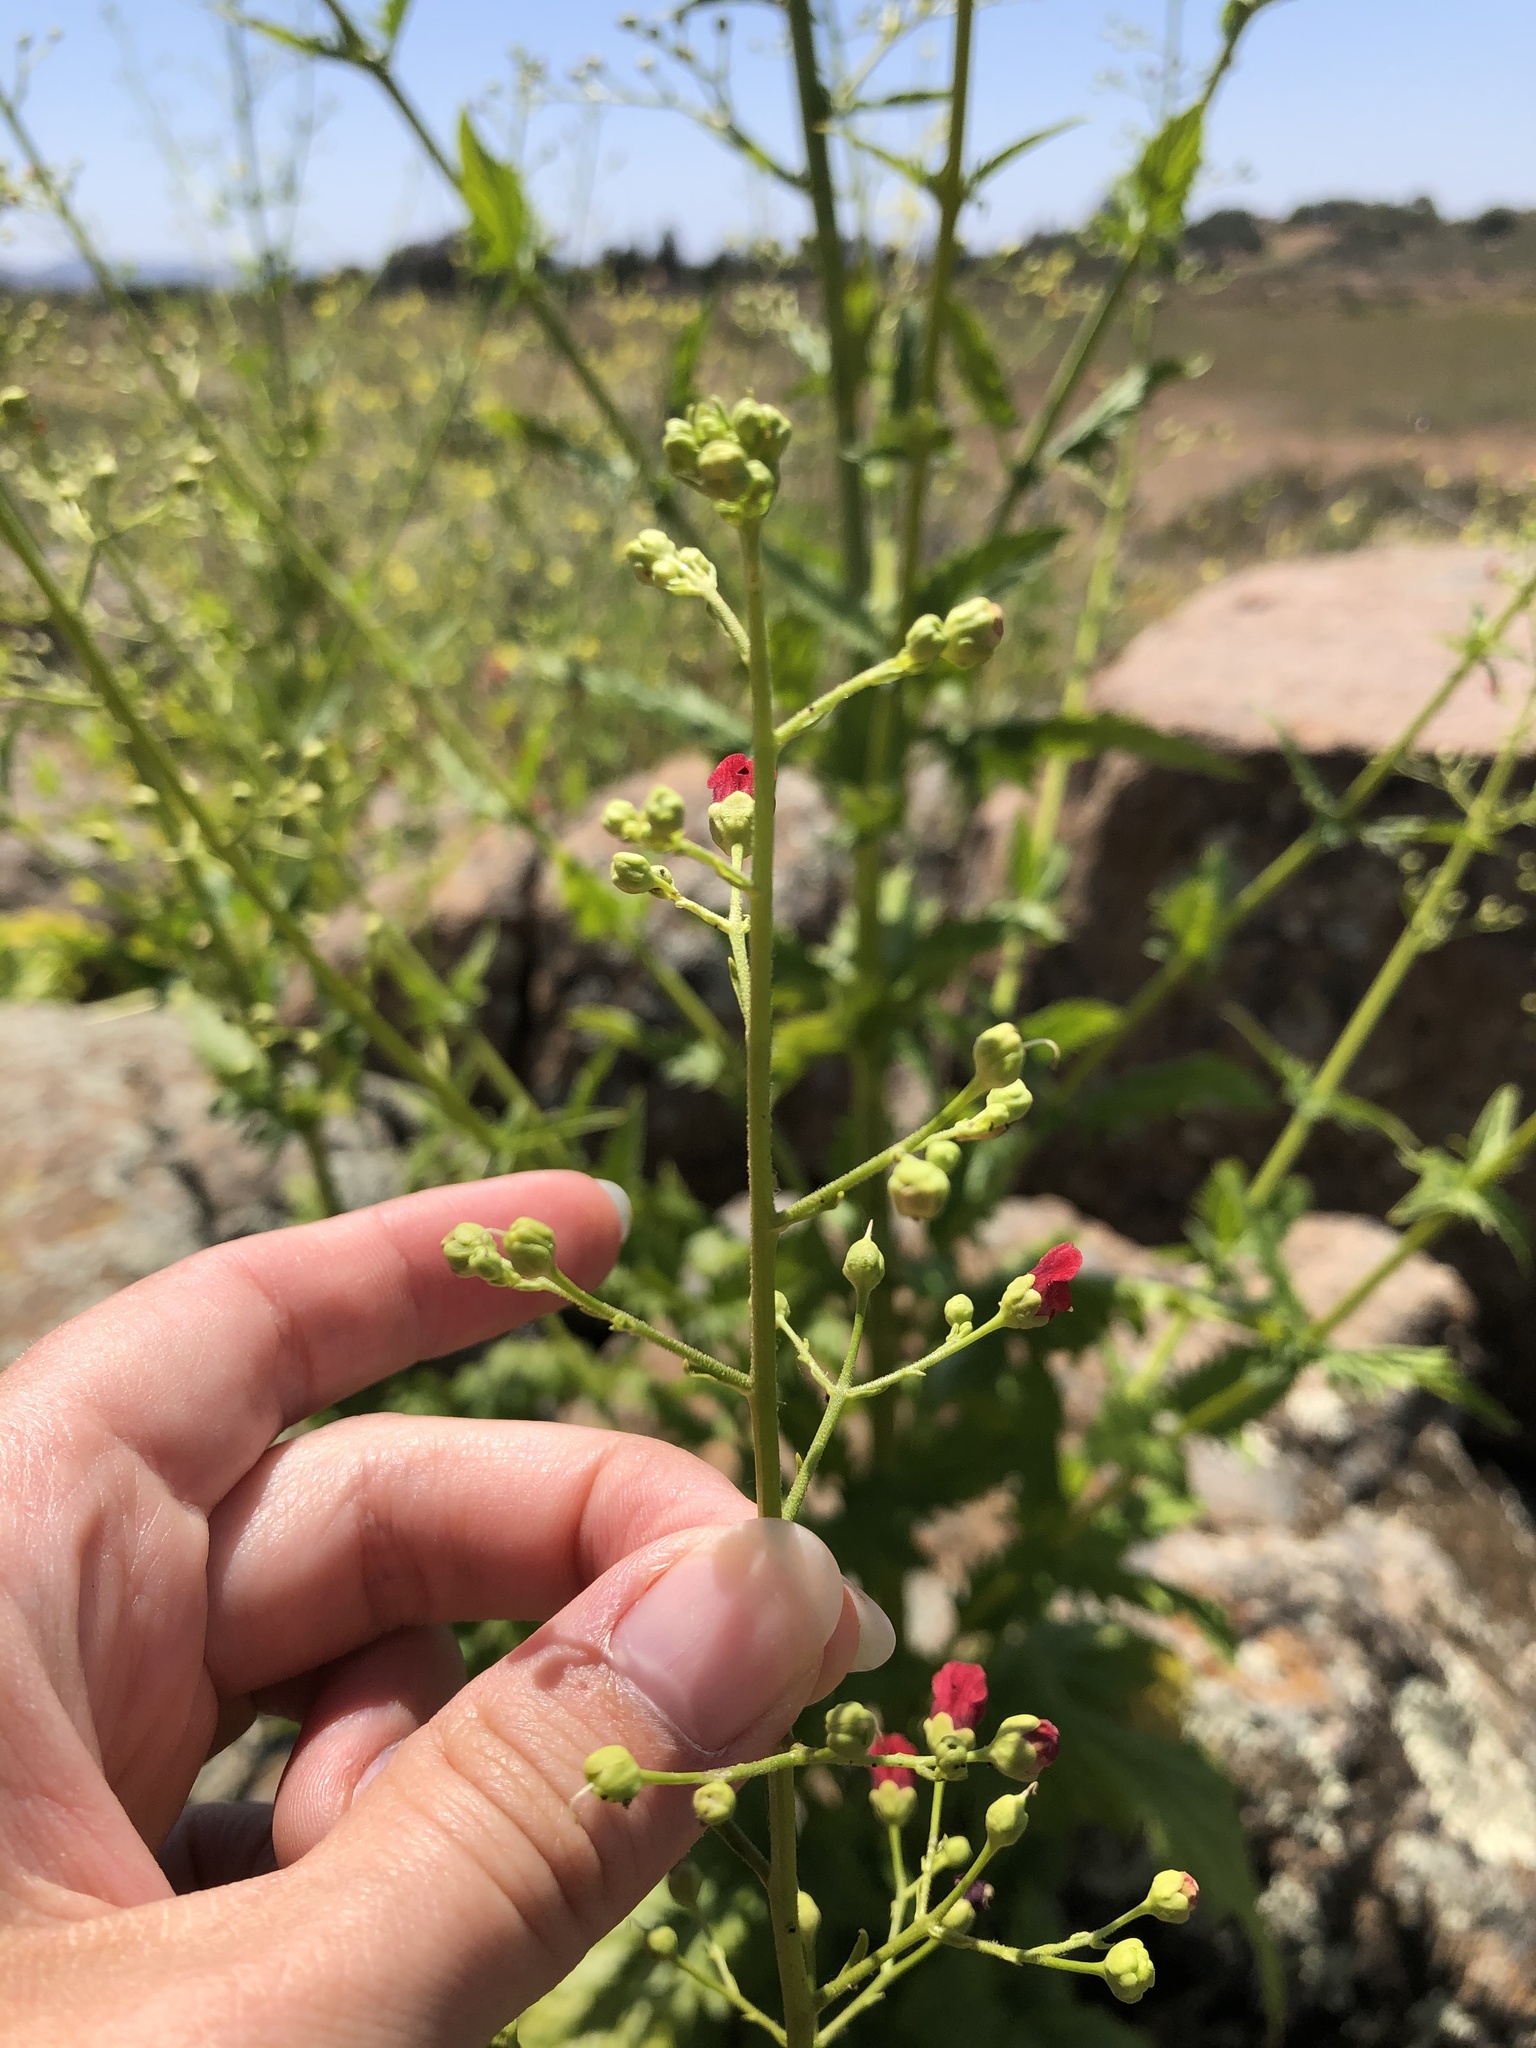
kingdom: Plantae
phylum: Tracheophyta
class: Magnoliopsida
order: Lamiales
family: Scrophulariaceae
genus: Scrophularia
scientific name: Scrophularia californica
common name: California figwort
